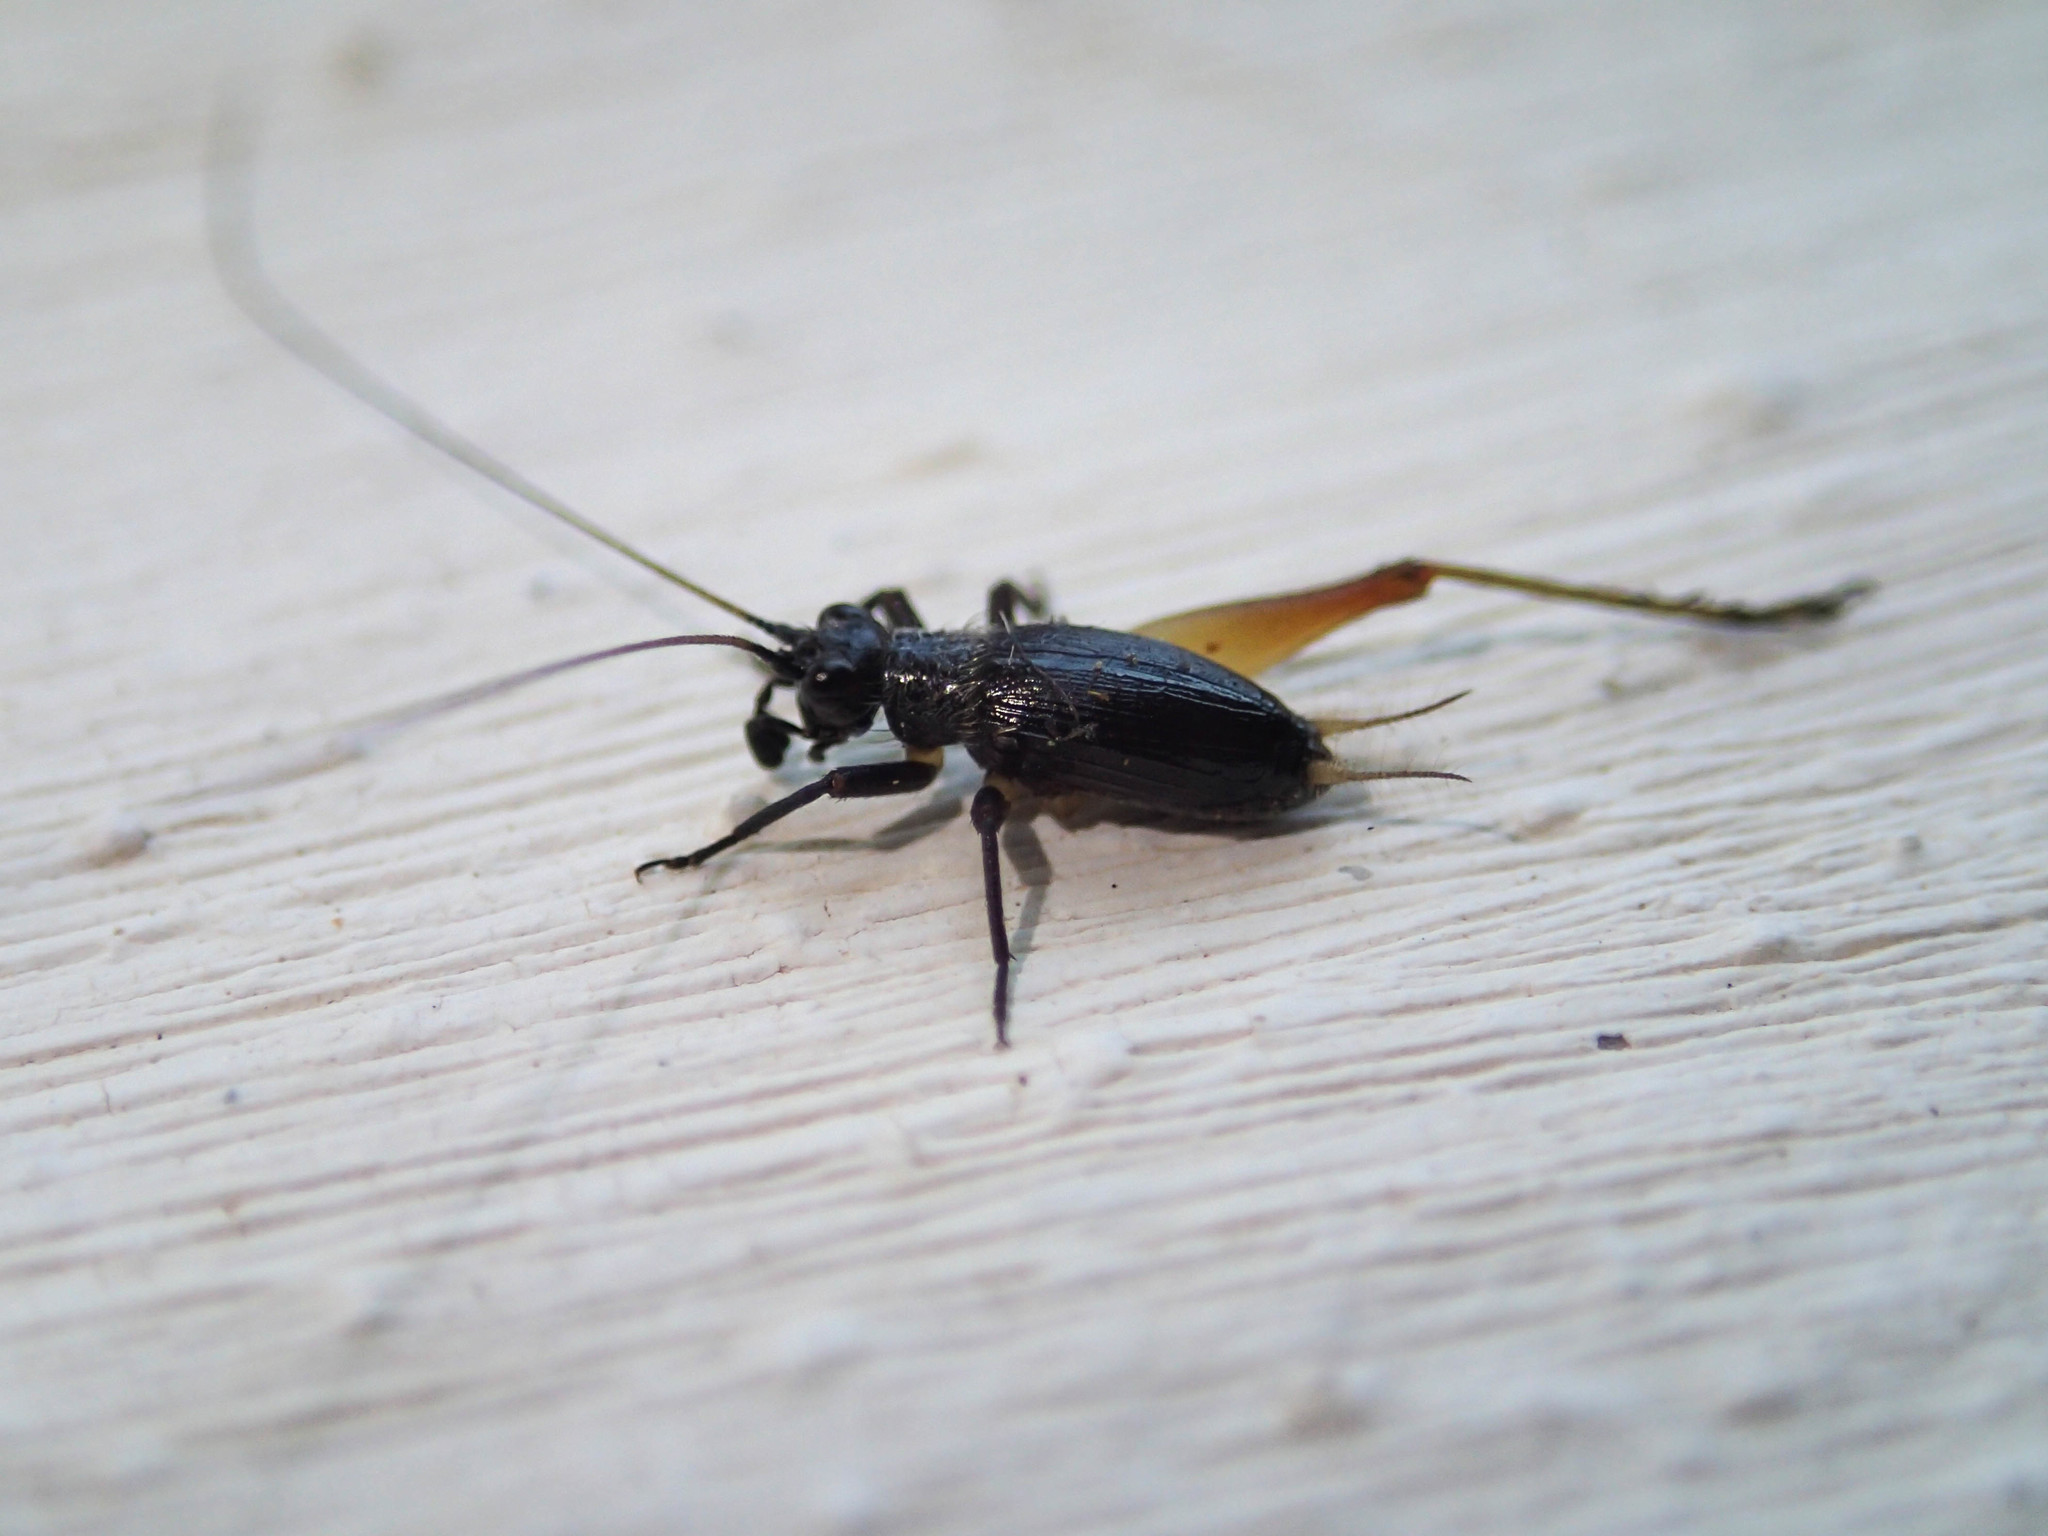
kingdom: Animalia
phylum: Arthropoda
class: Insecta
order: Orthoptera
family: Trigonidiidae
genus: Trigonidium
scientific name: Trigonidium cicindeloides
